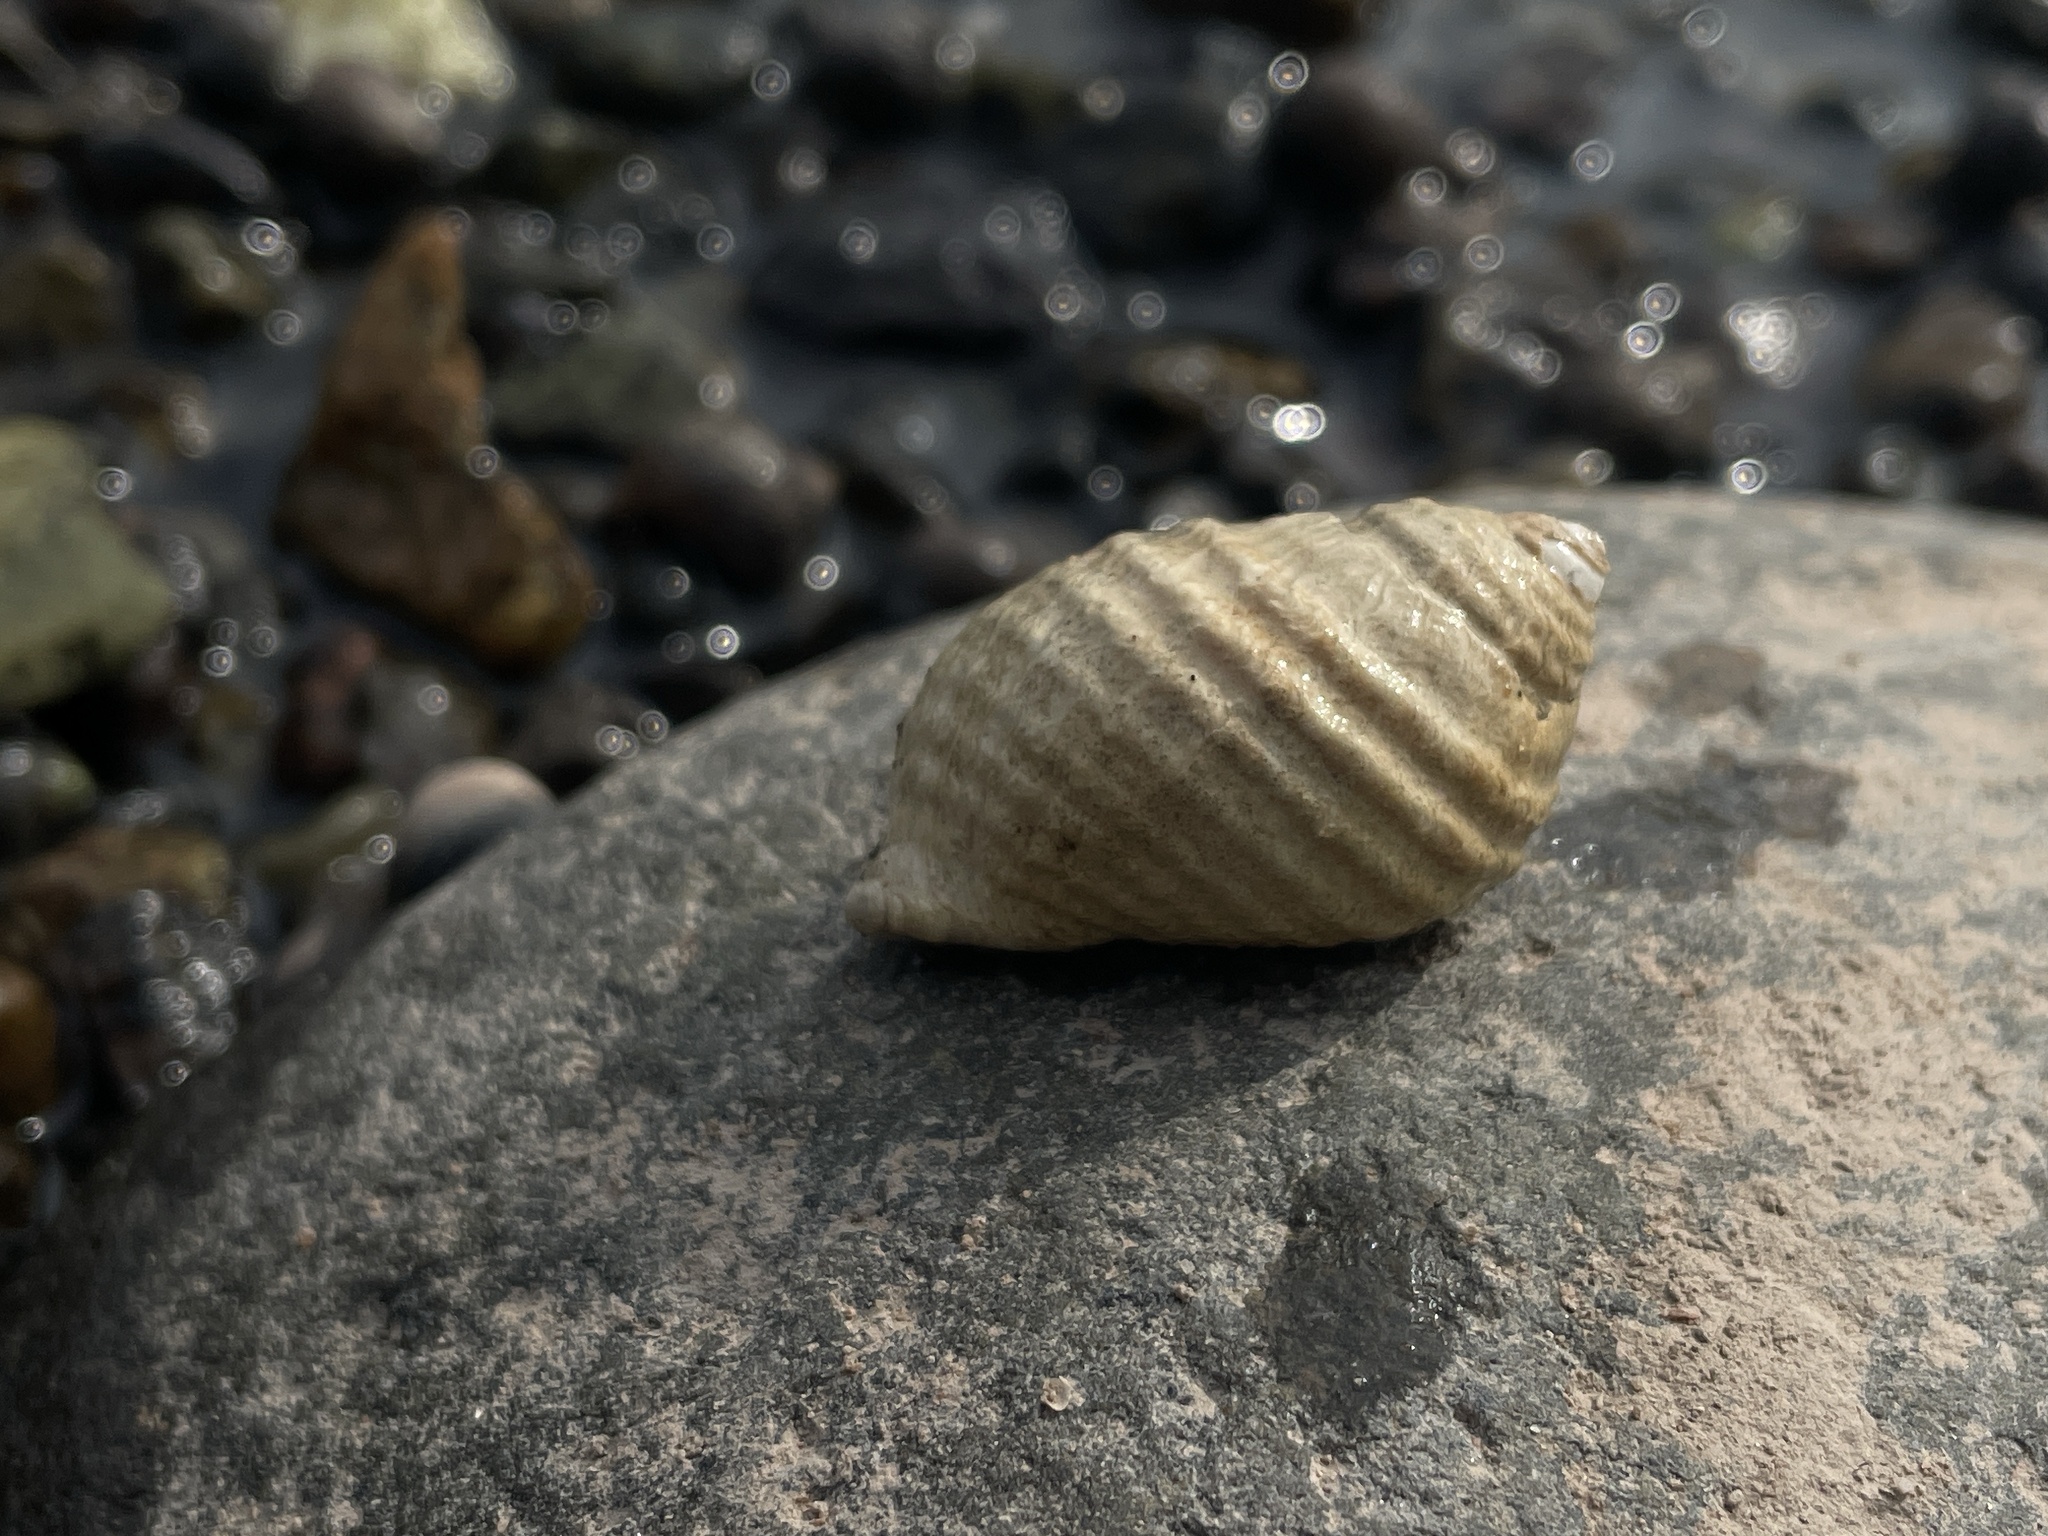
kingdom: Animalia
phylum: Mollusca
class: Gastropoda
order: Neogastropoda
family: Muricidae
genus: Nucella
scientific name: Nucella lapillus
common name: Dog whelk
